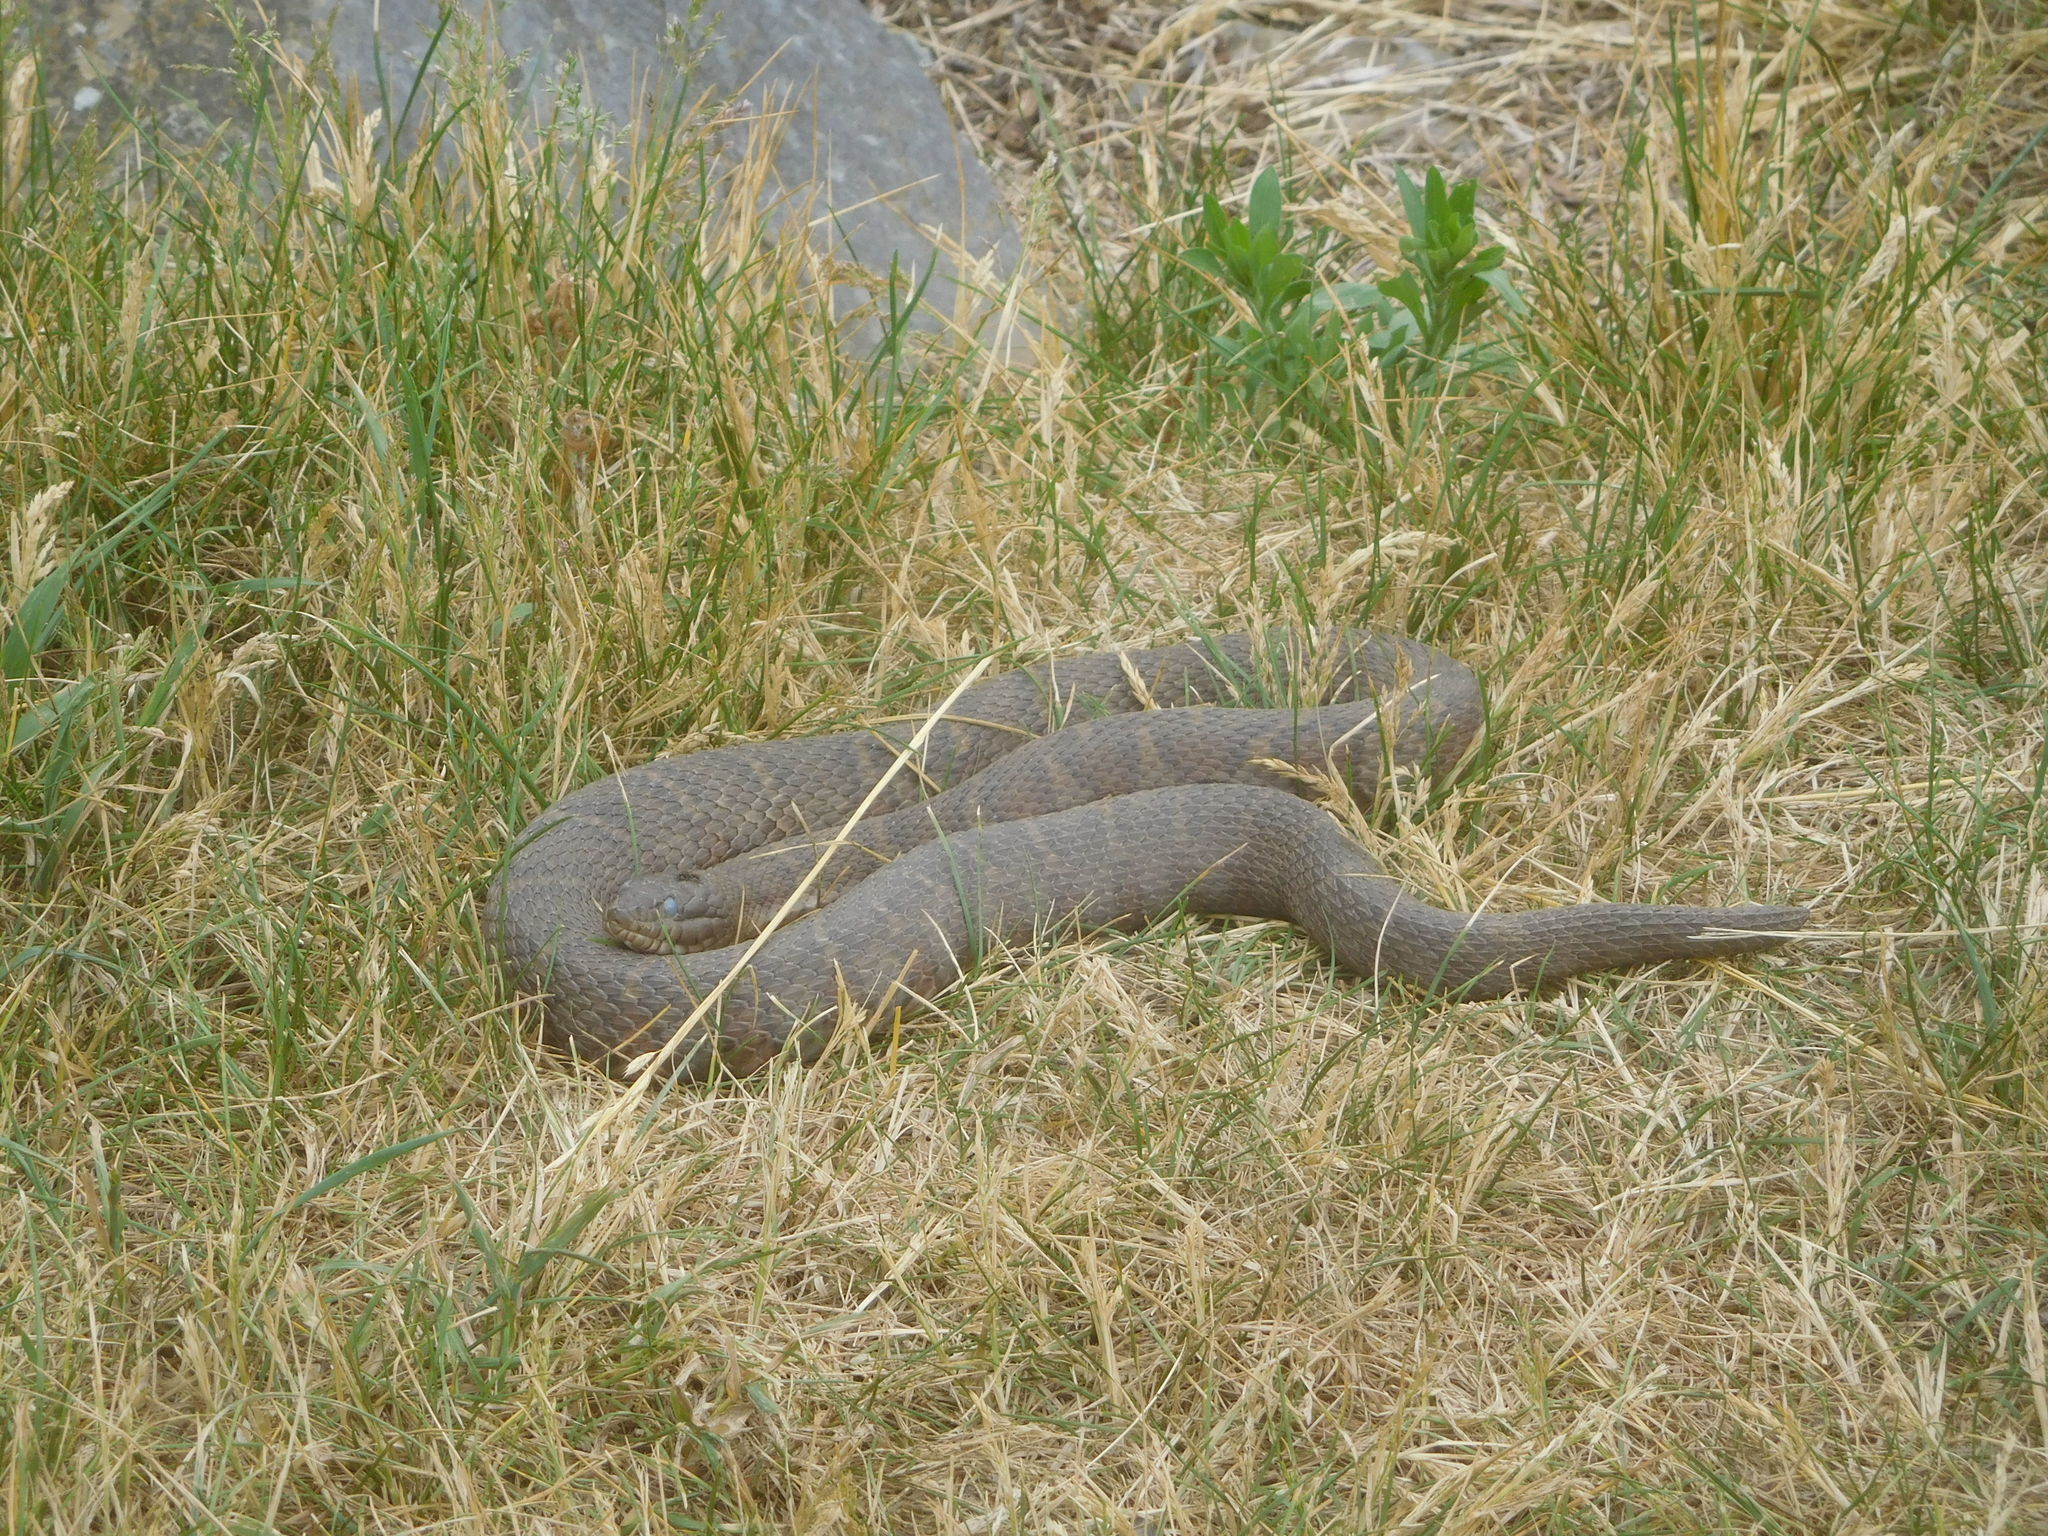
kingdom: Animalia
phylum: Chordata
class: Squamata
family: Colubridae
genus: Nerodia
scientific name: Nerodia sipedon
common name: Northern water snake
